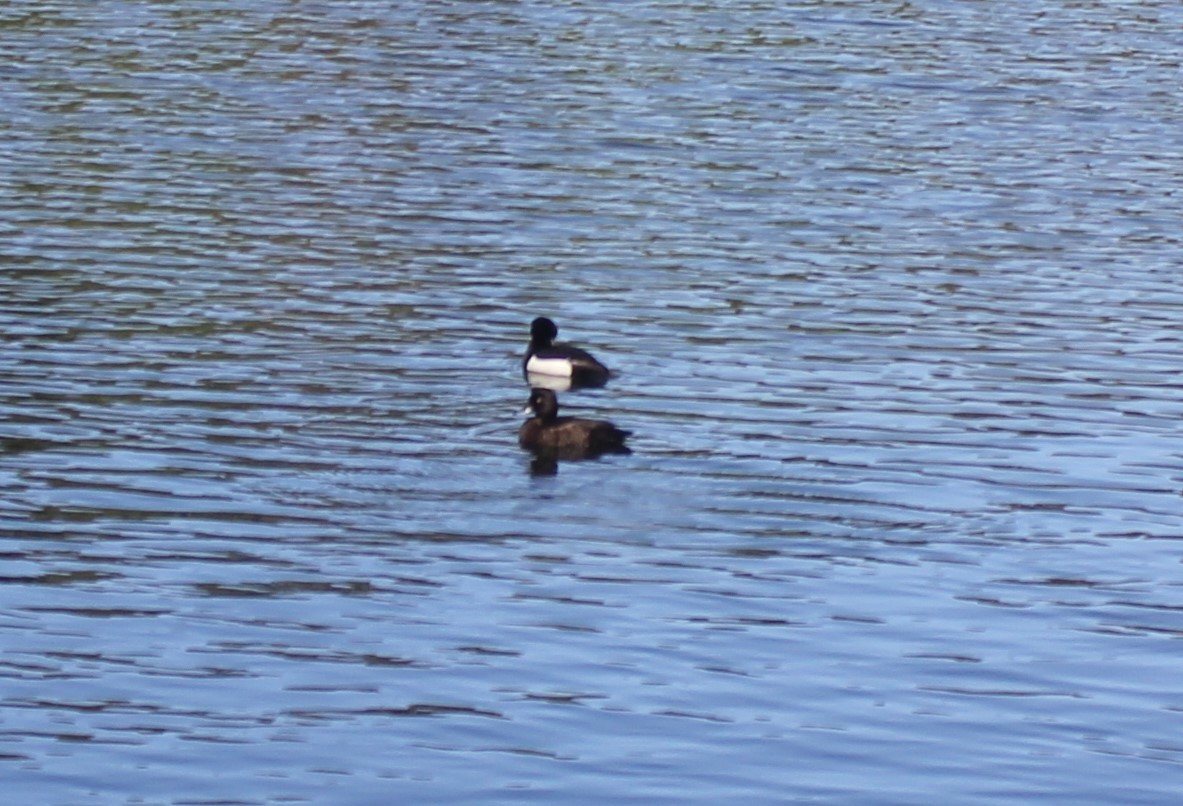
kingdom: Animalia
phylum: Chordata
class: Aves
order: Anseriformes
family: Anatidae
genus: Aythya
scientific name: Aythya fuligula
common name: Tufted duck
